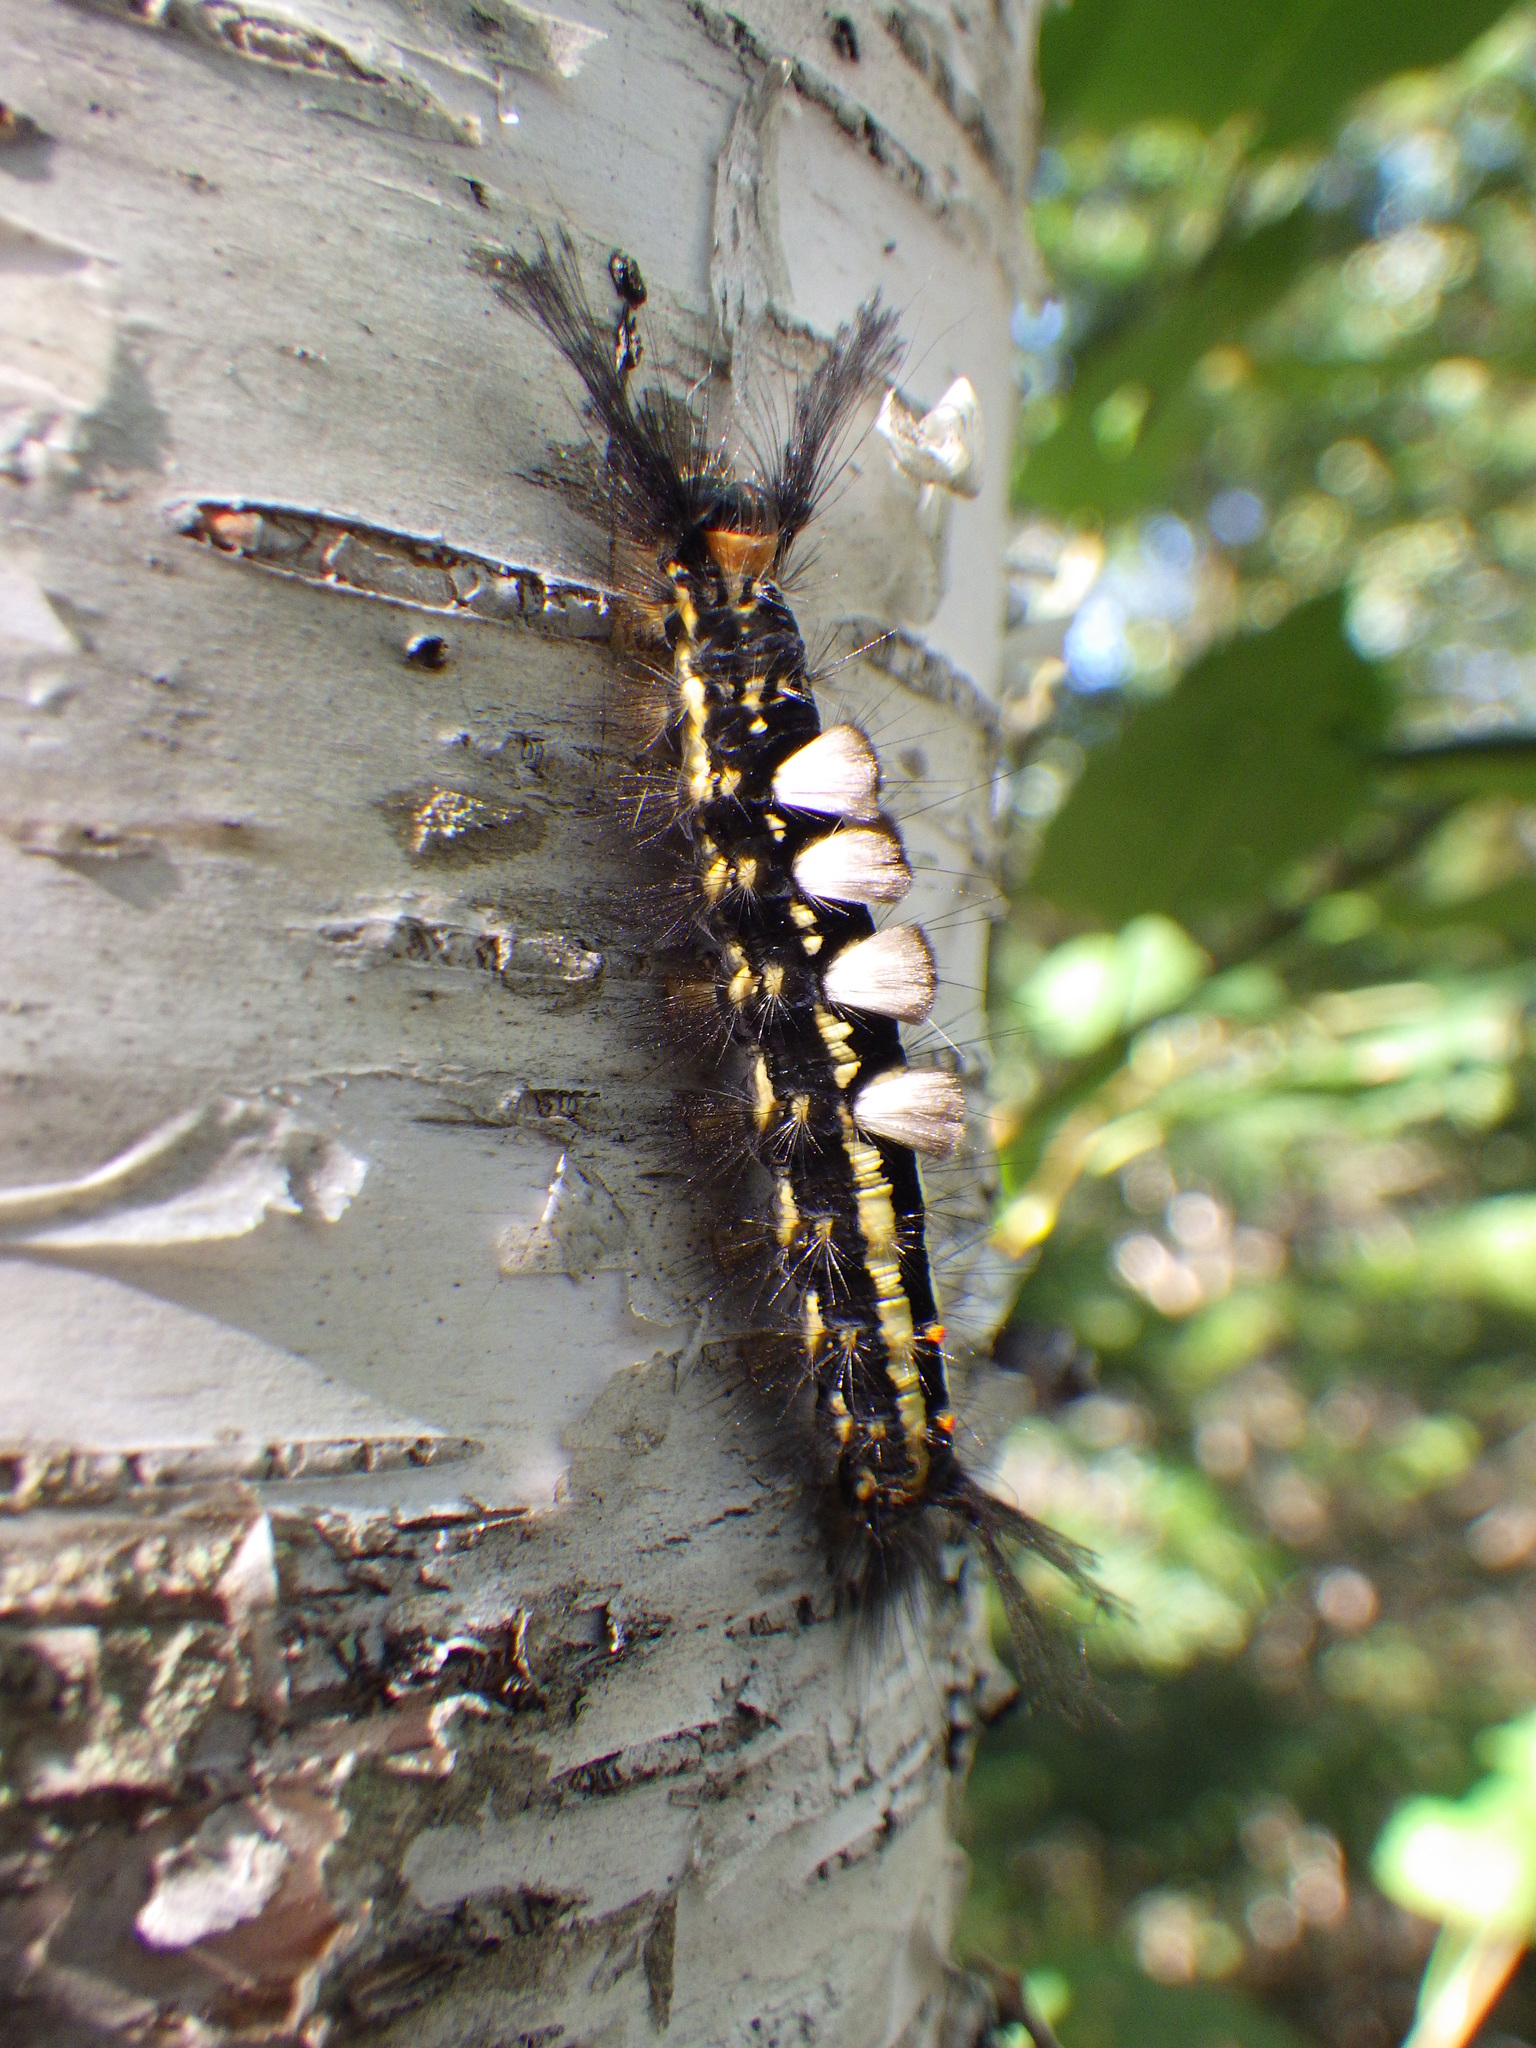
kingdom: Animalia
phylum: Arthropoda
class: Insecta
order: Lepidoptera
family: Erebidae
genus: Orgyia
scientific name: Orgyia leucostigma
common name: White-marked tussock moth
